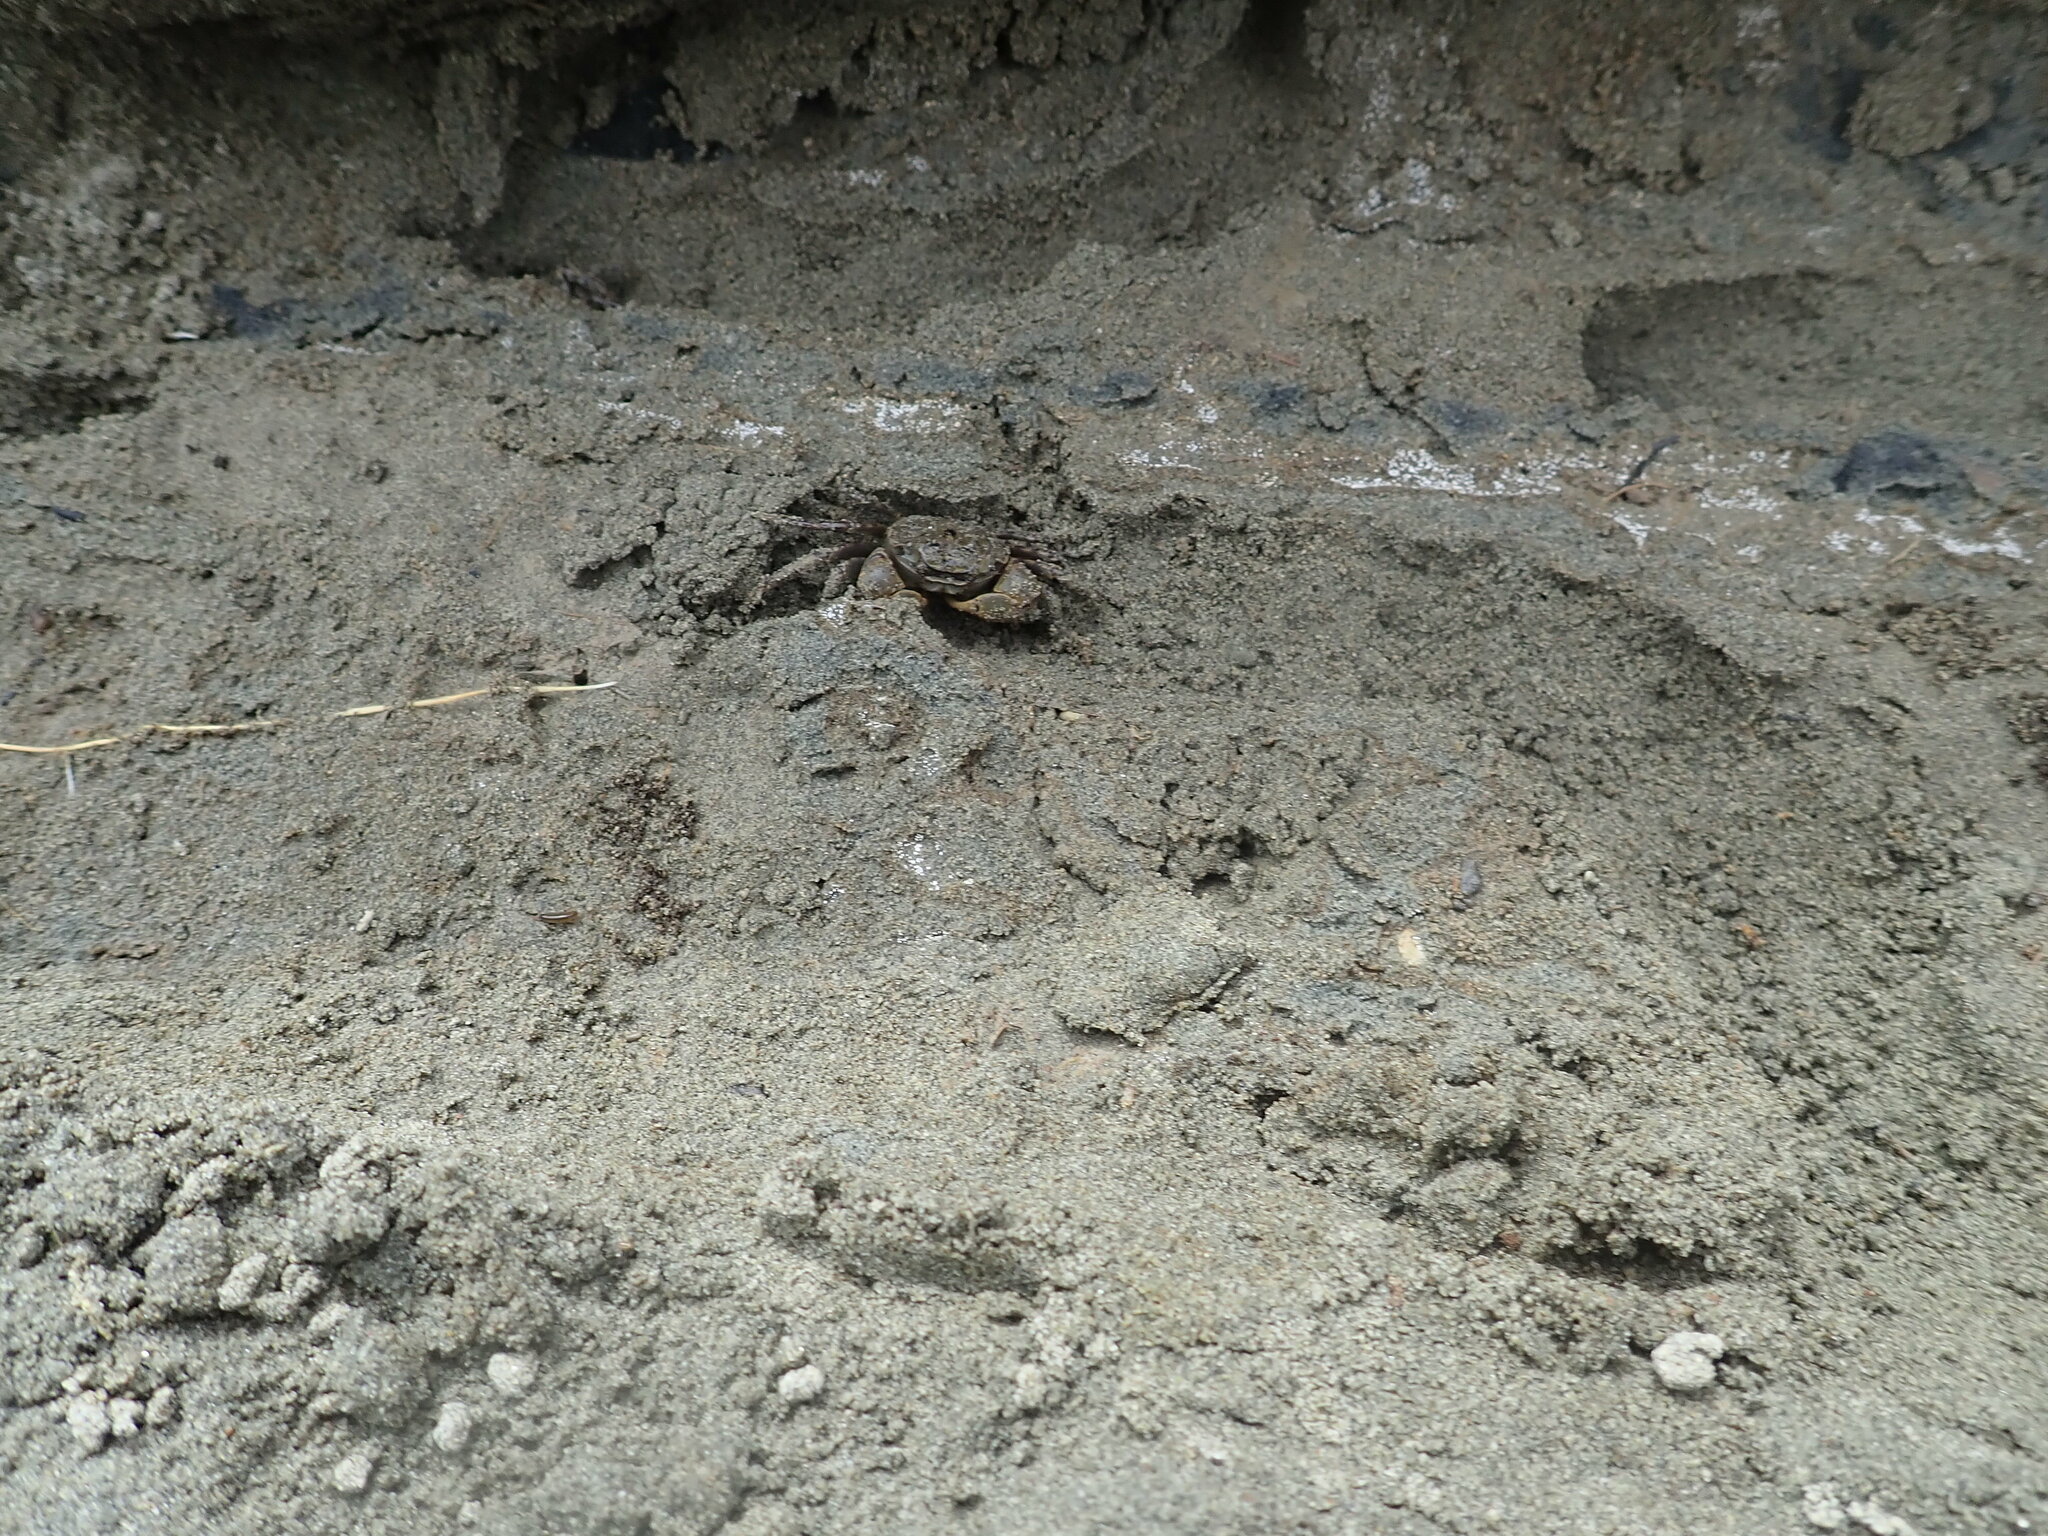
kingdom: Animalia
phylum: Arthropoda
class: Malacostraca
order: Decapoda
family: Varunidae
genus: Austrohelice
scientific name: Austrohelice crassa
